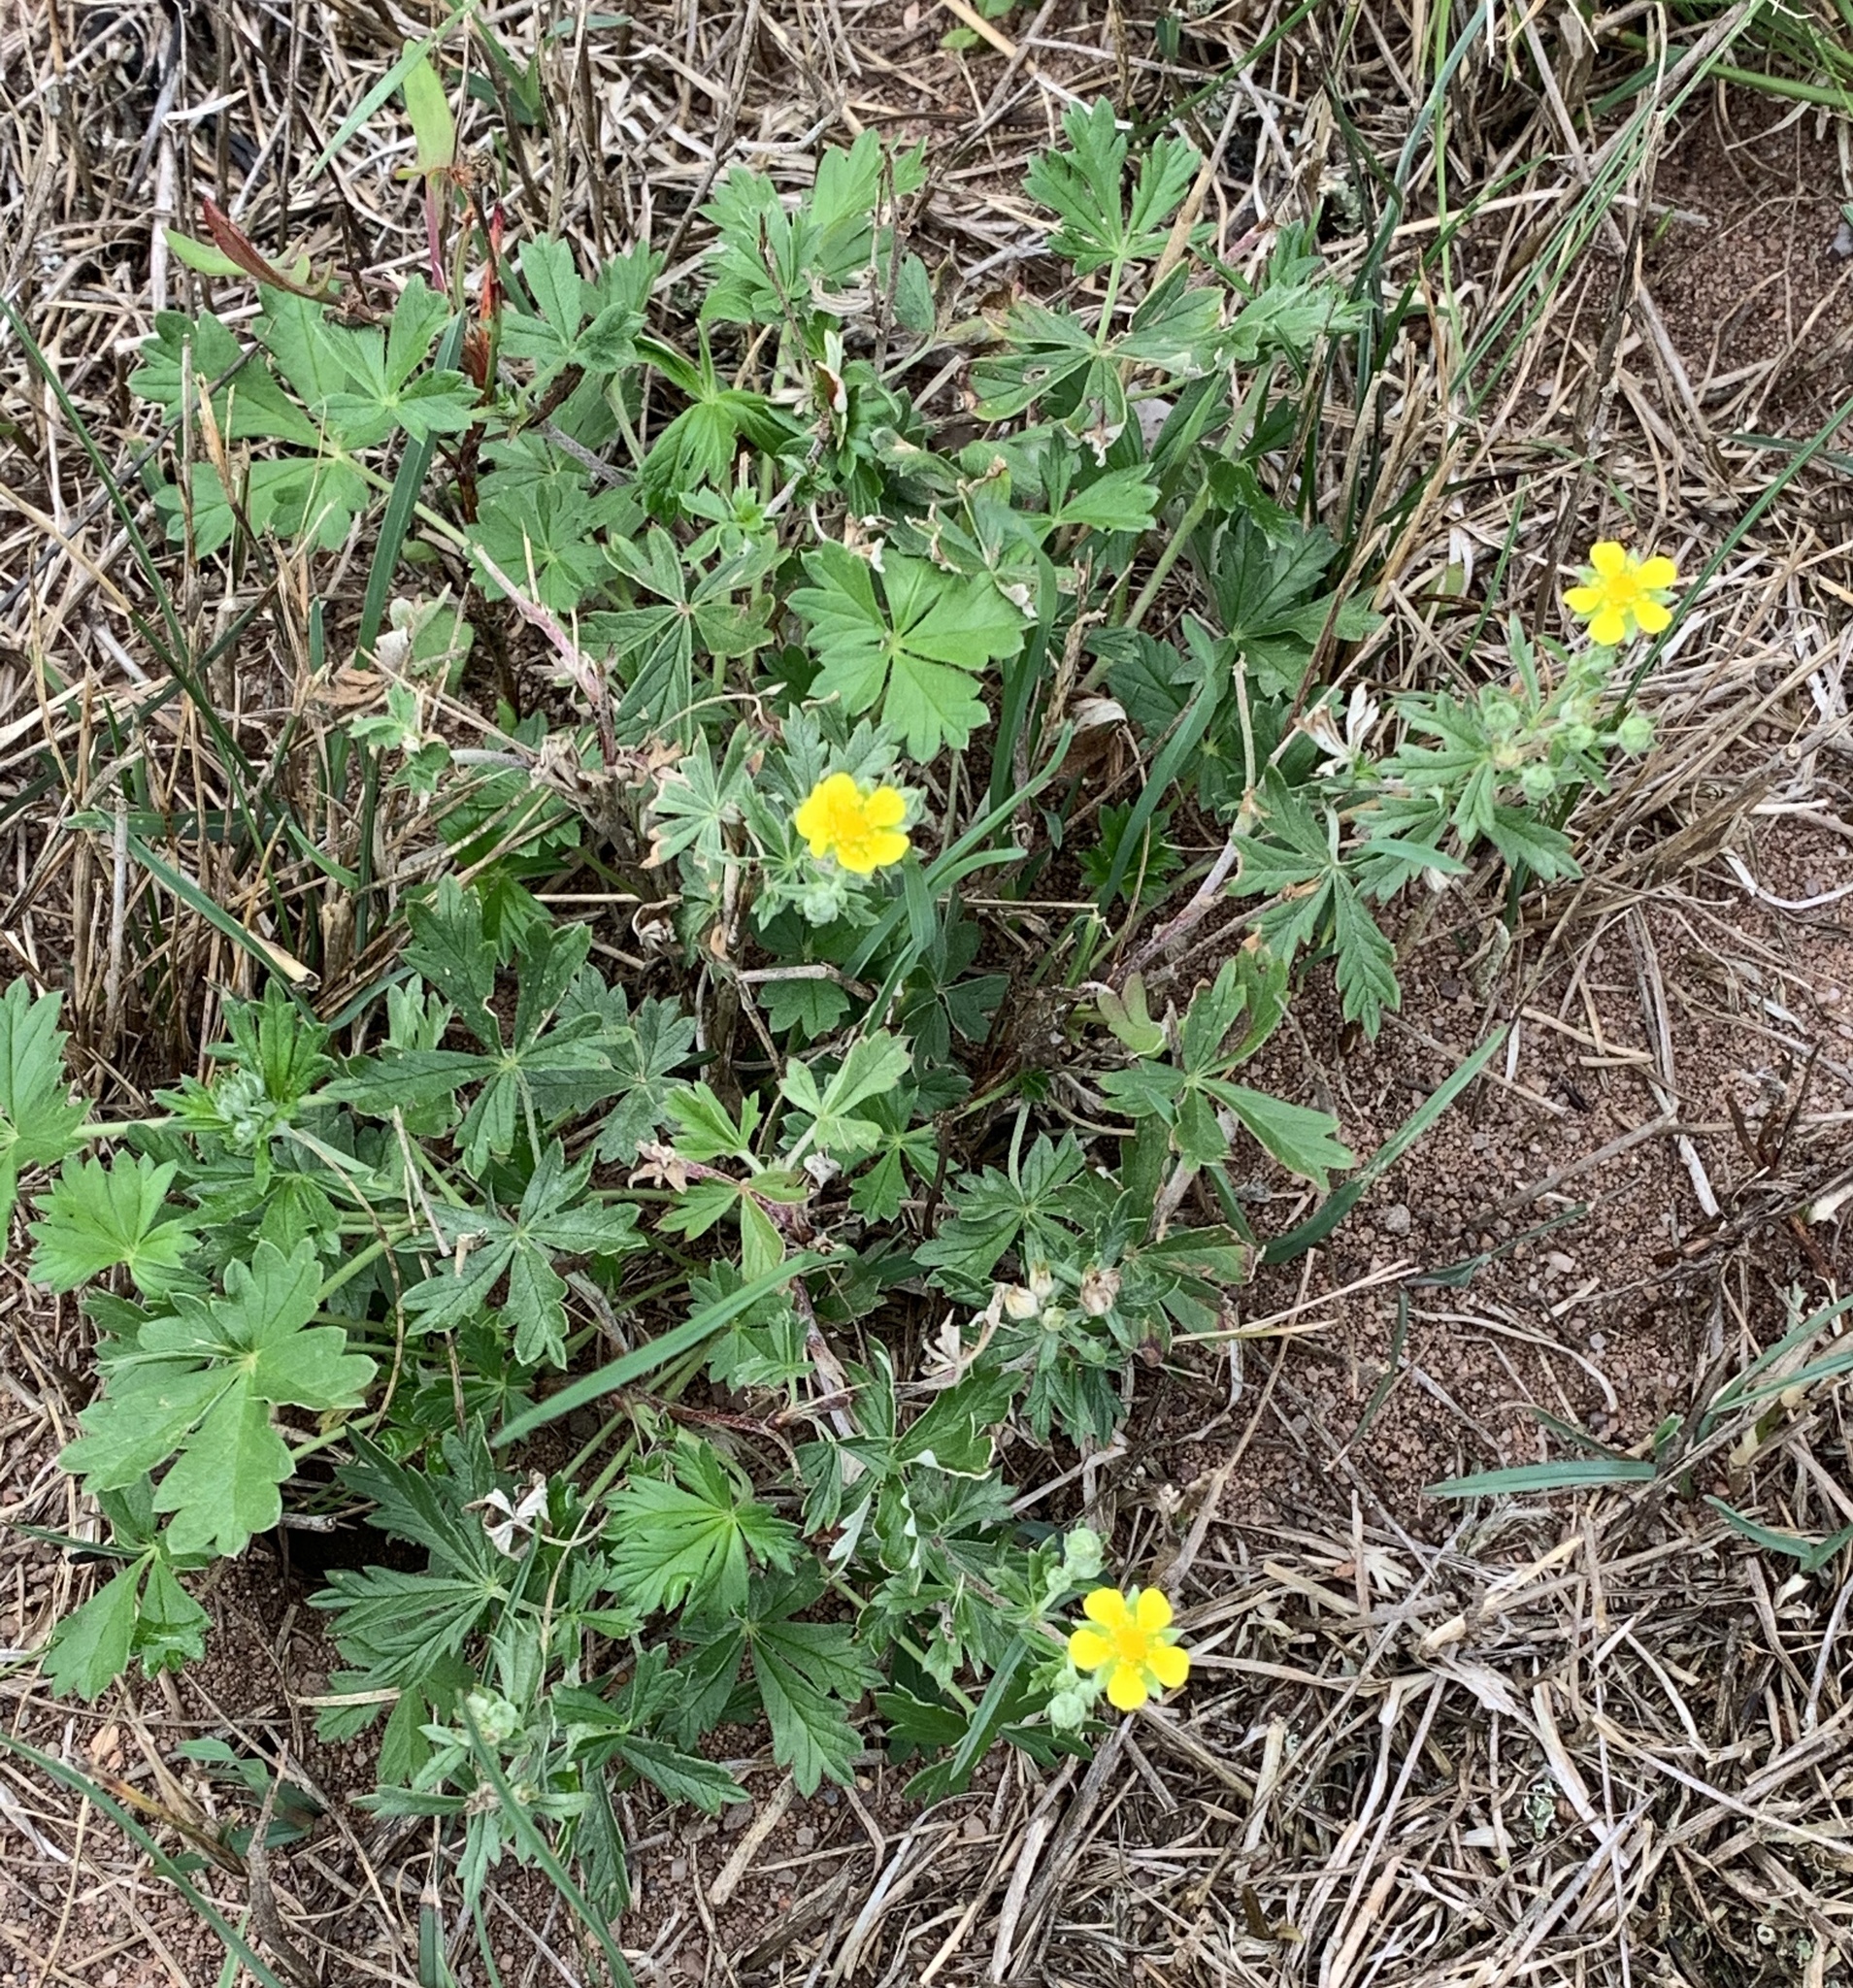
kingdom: Plantae
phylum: Tracheophyta
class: Magnoliopsida
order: Rosales
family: Rosaceae
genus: Potentilla
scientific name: Potentilla argentea
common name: Hoary cinquefoil
